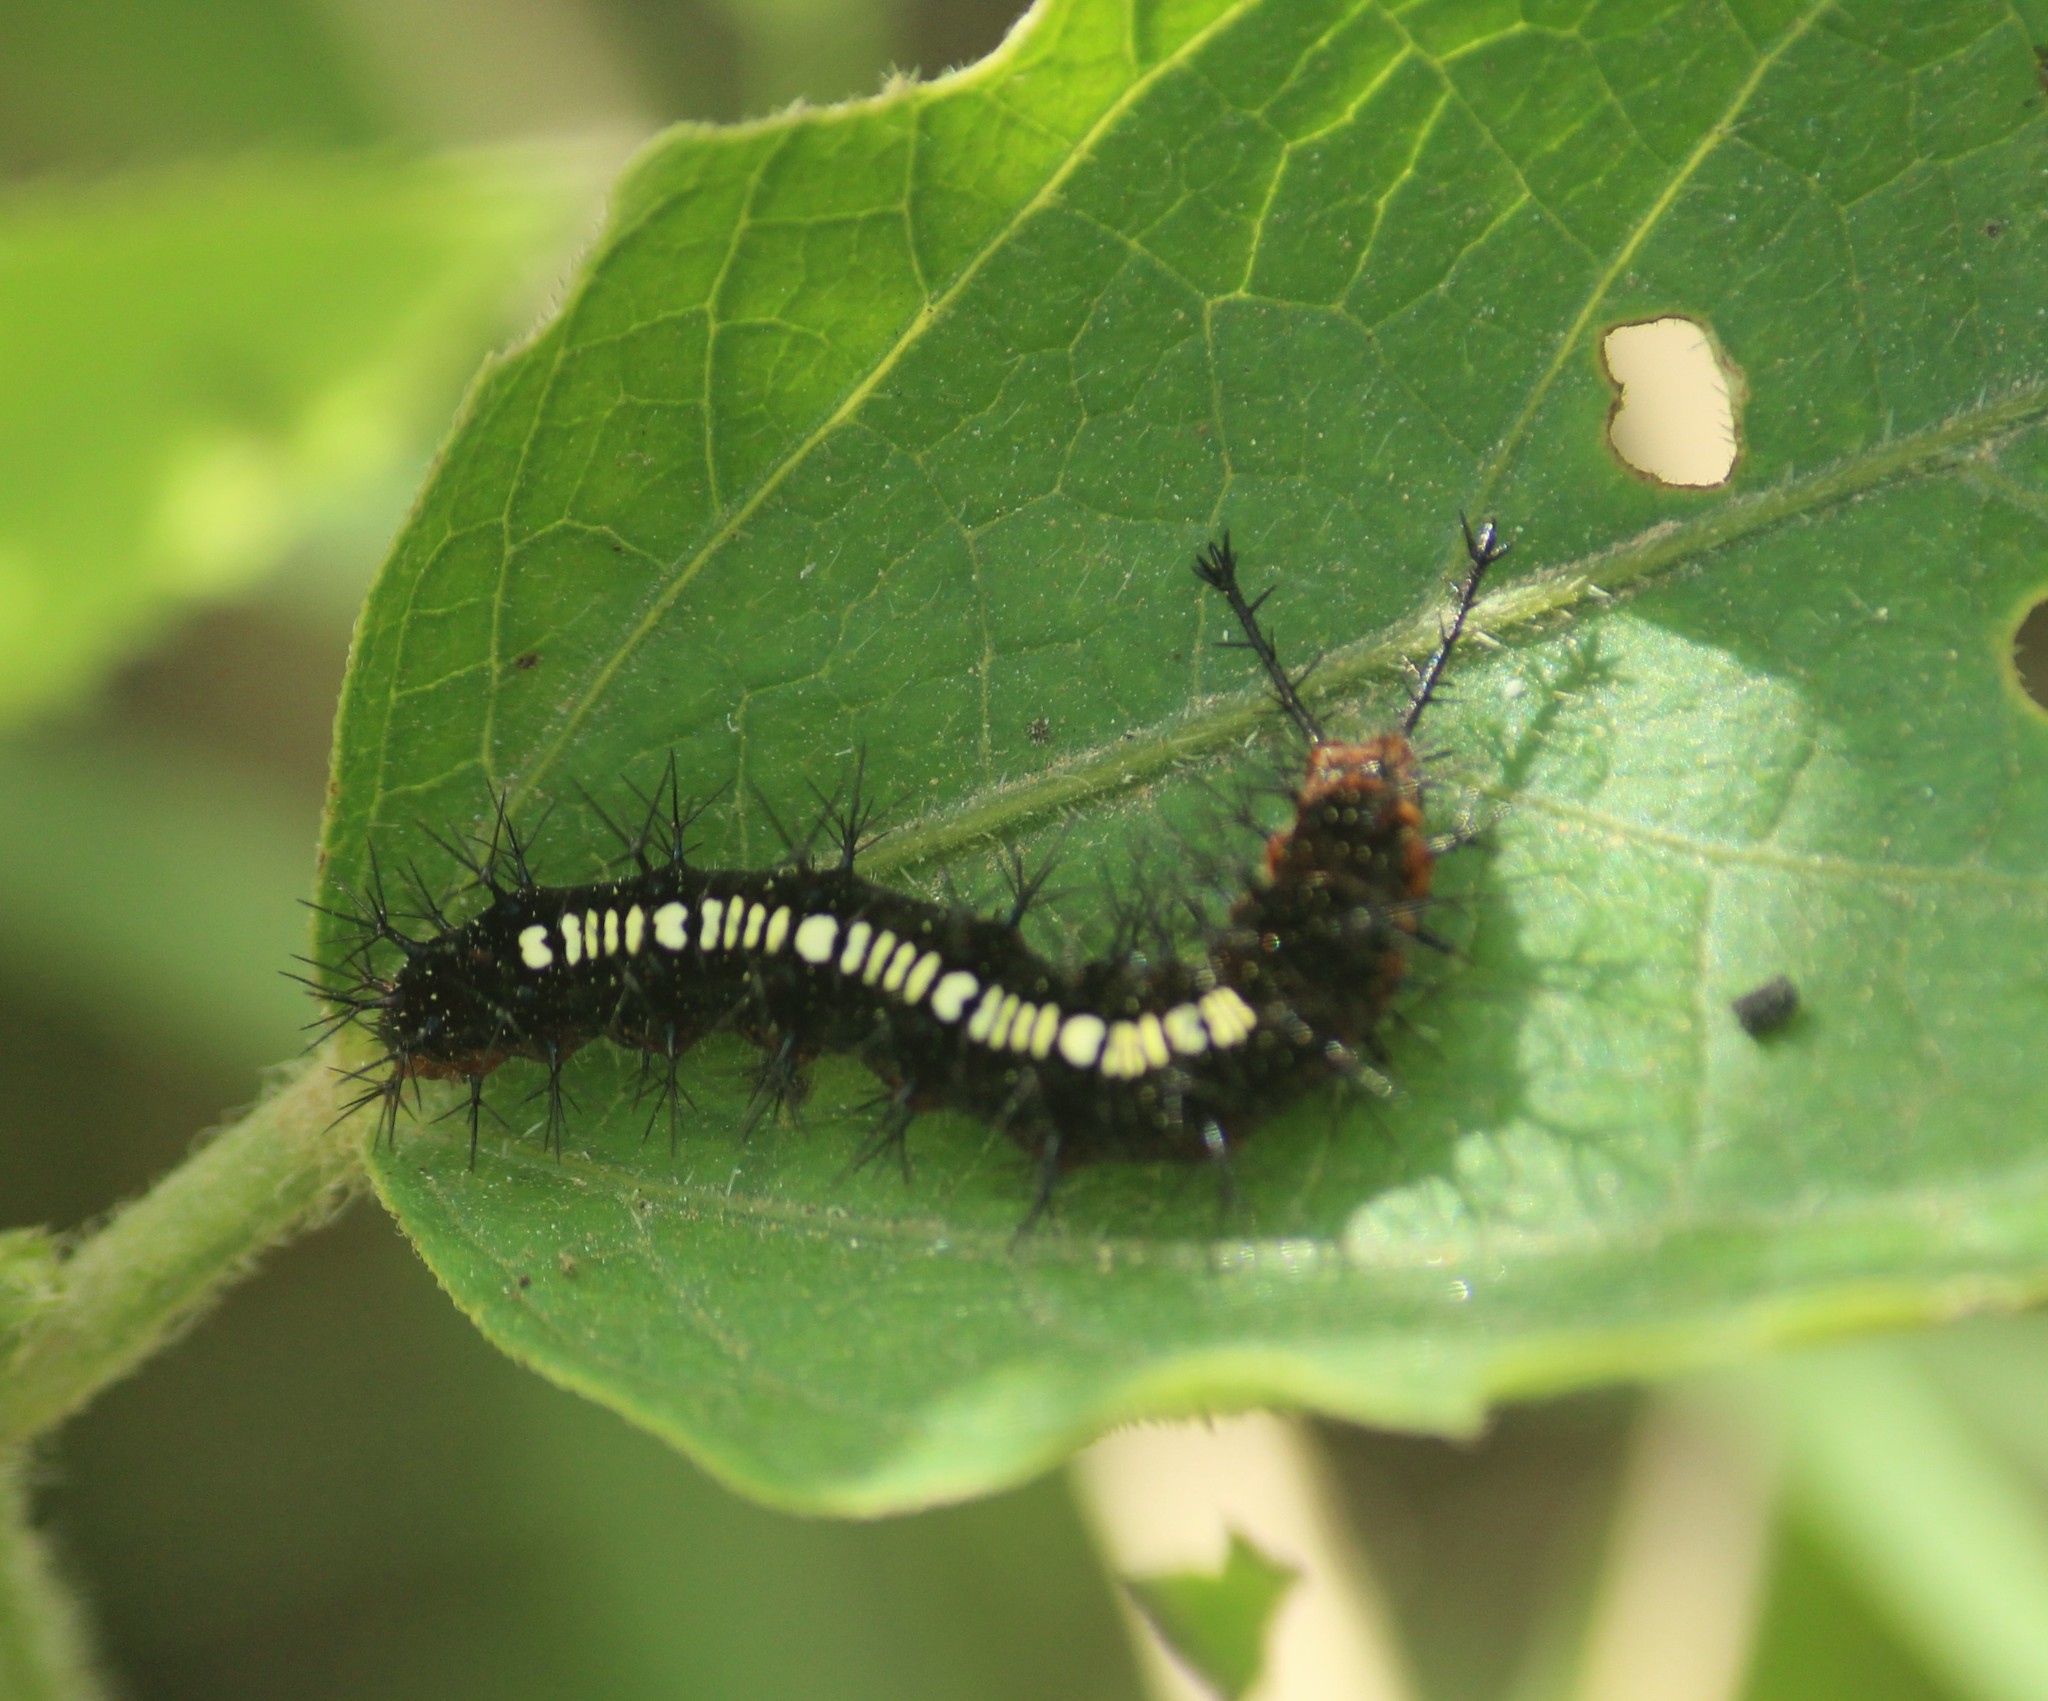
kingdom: Animalia
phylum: Arthropoda
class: Insecta
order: Lepidoptera
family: Nymphalidae
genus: Ariadne
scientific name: Ariadne ariadne
